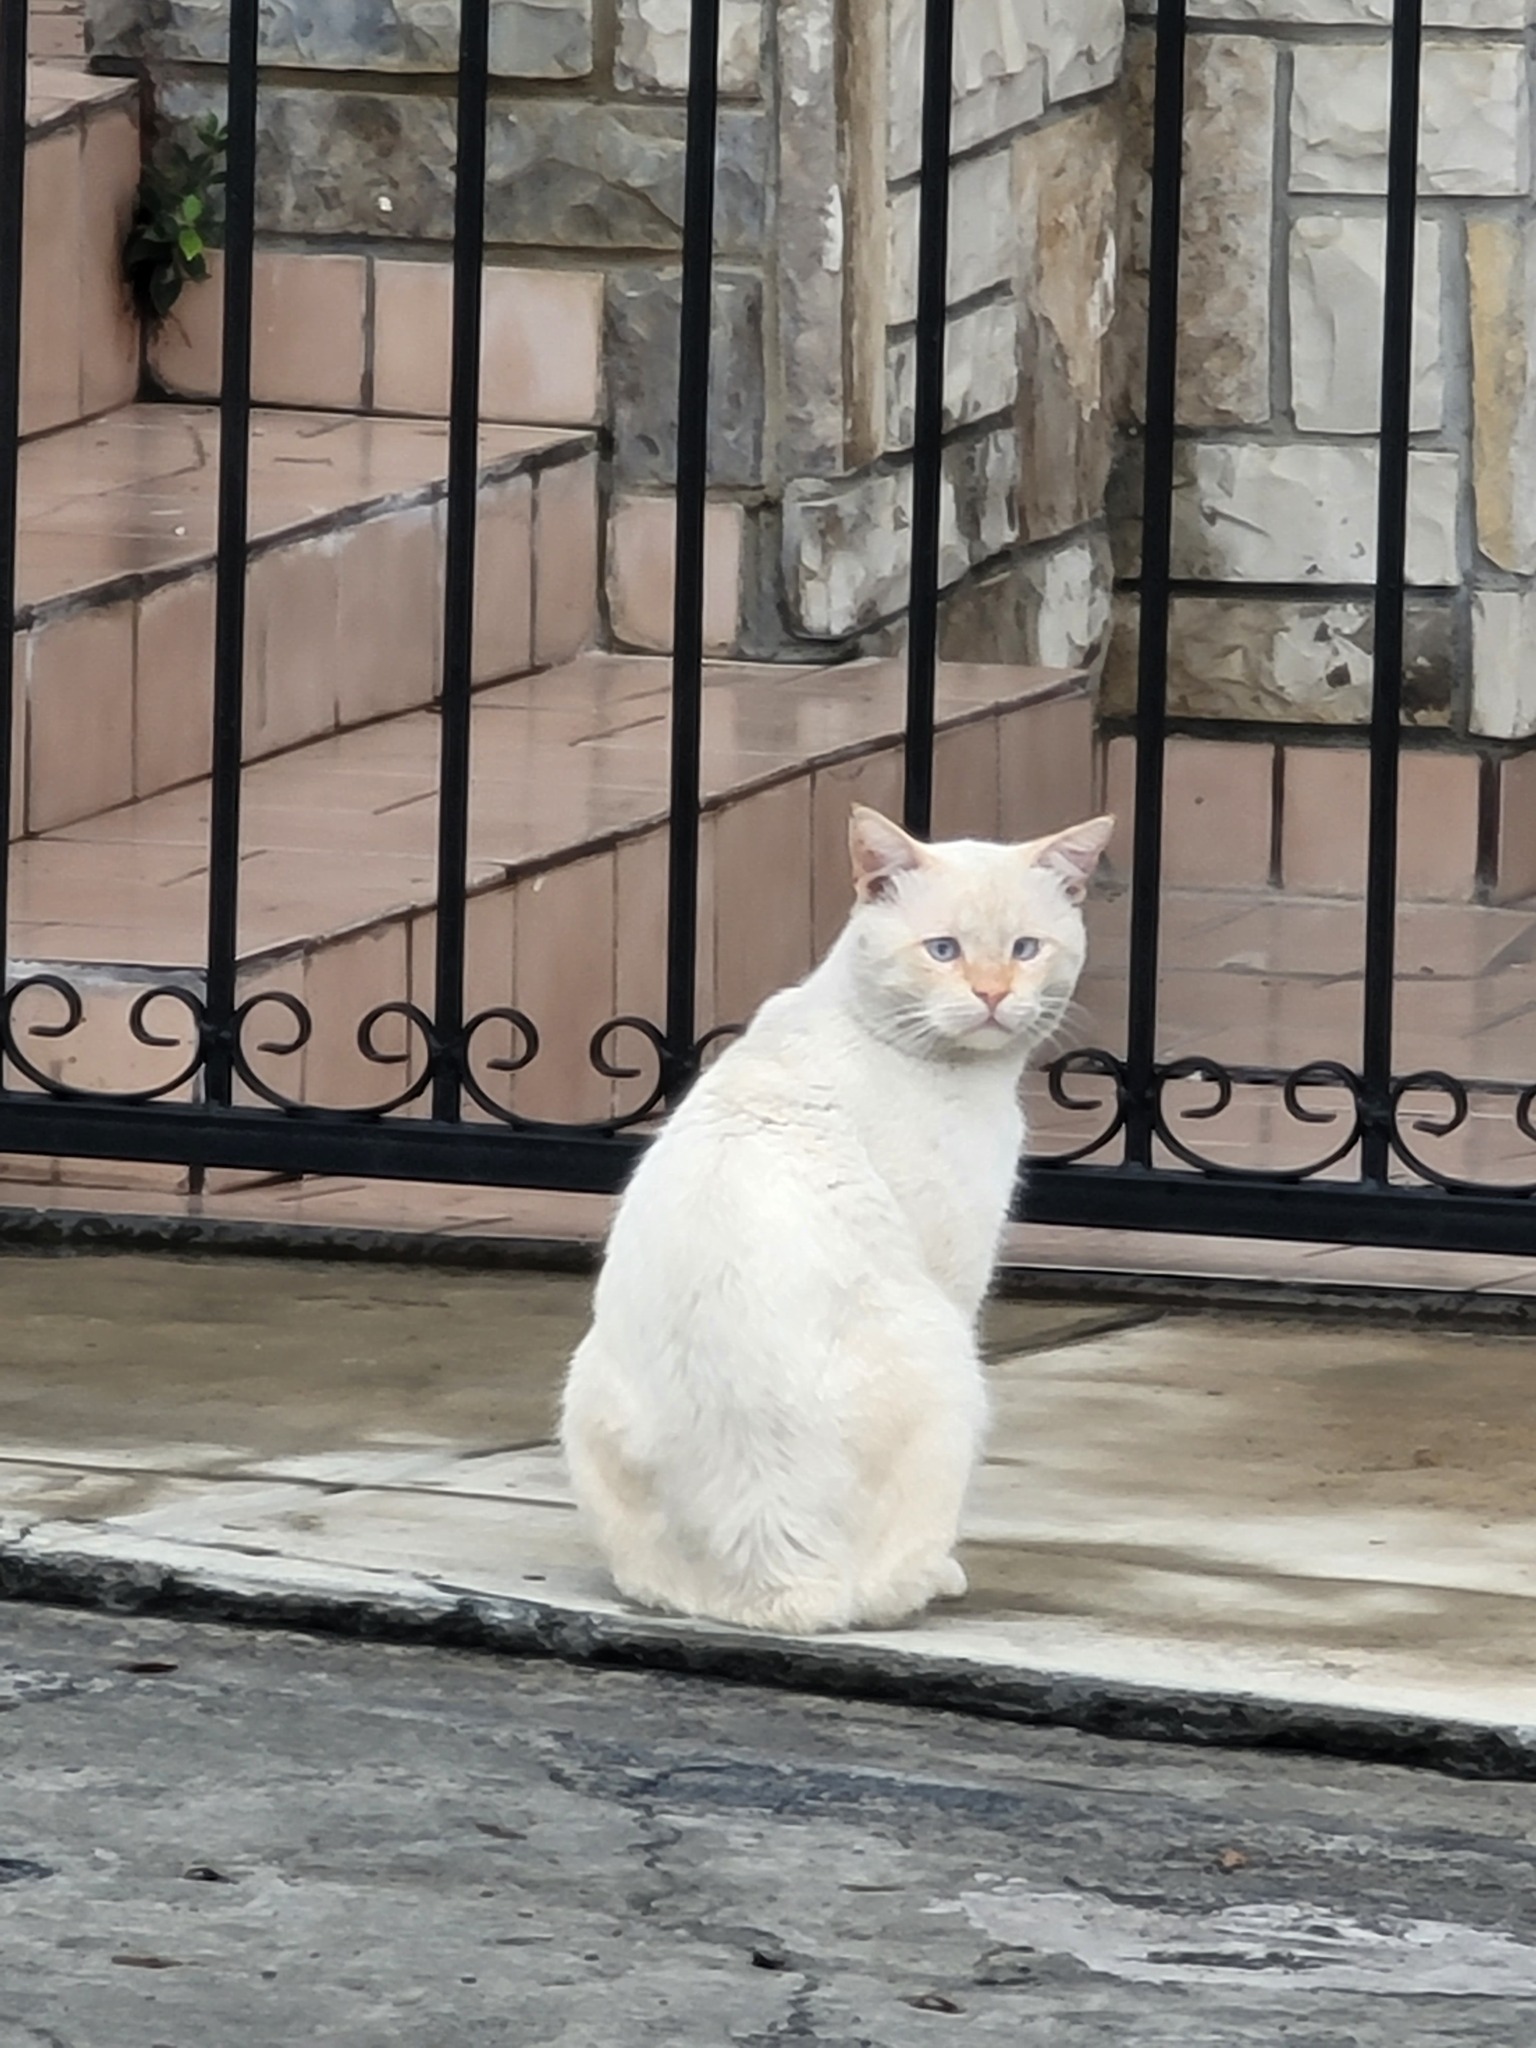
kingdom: Animalia
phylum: Chordata
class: Mammalia
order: Carnivora
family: Felidae
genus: Felis
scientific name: Felis catus
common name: Domestic cat
